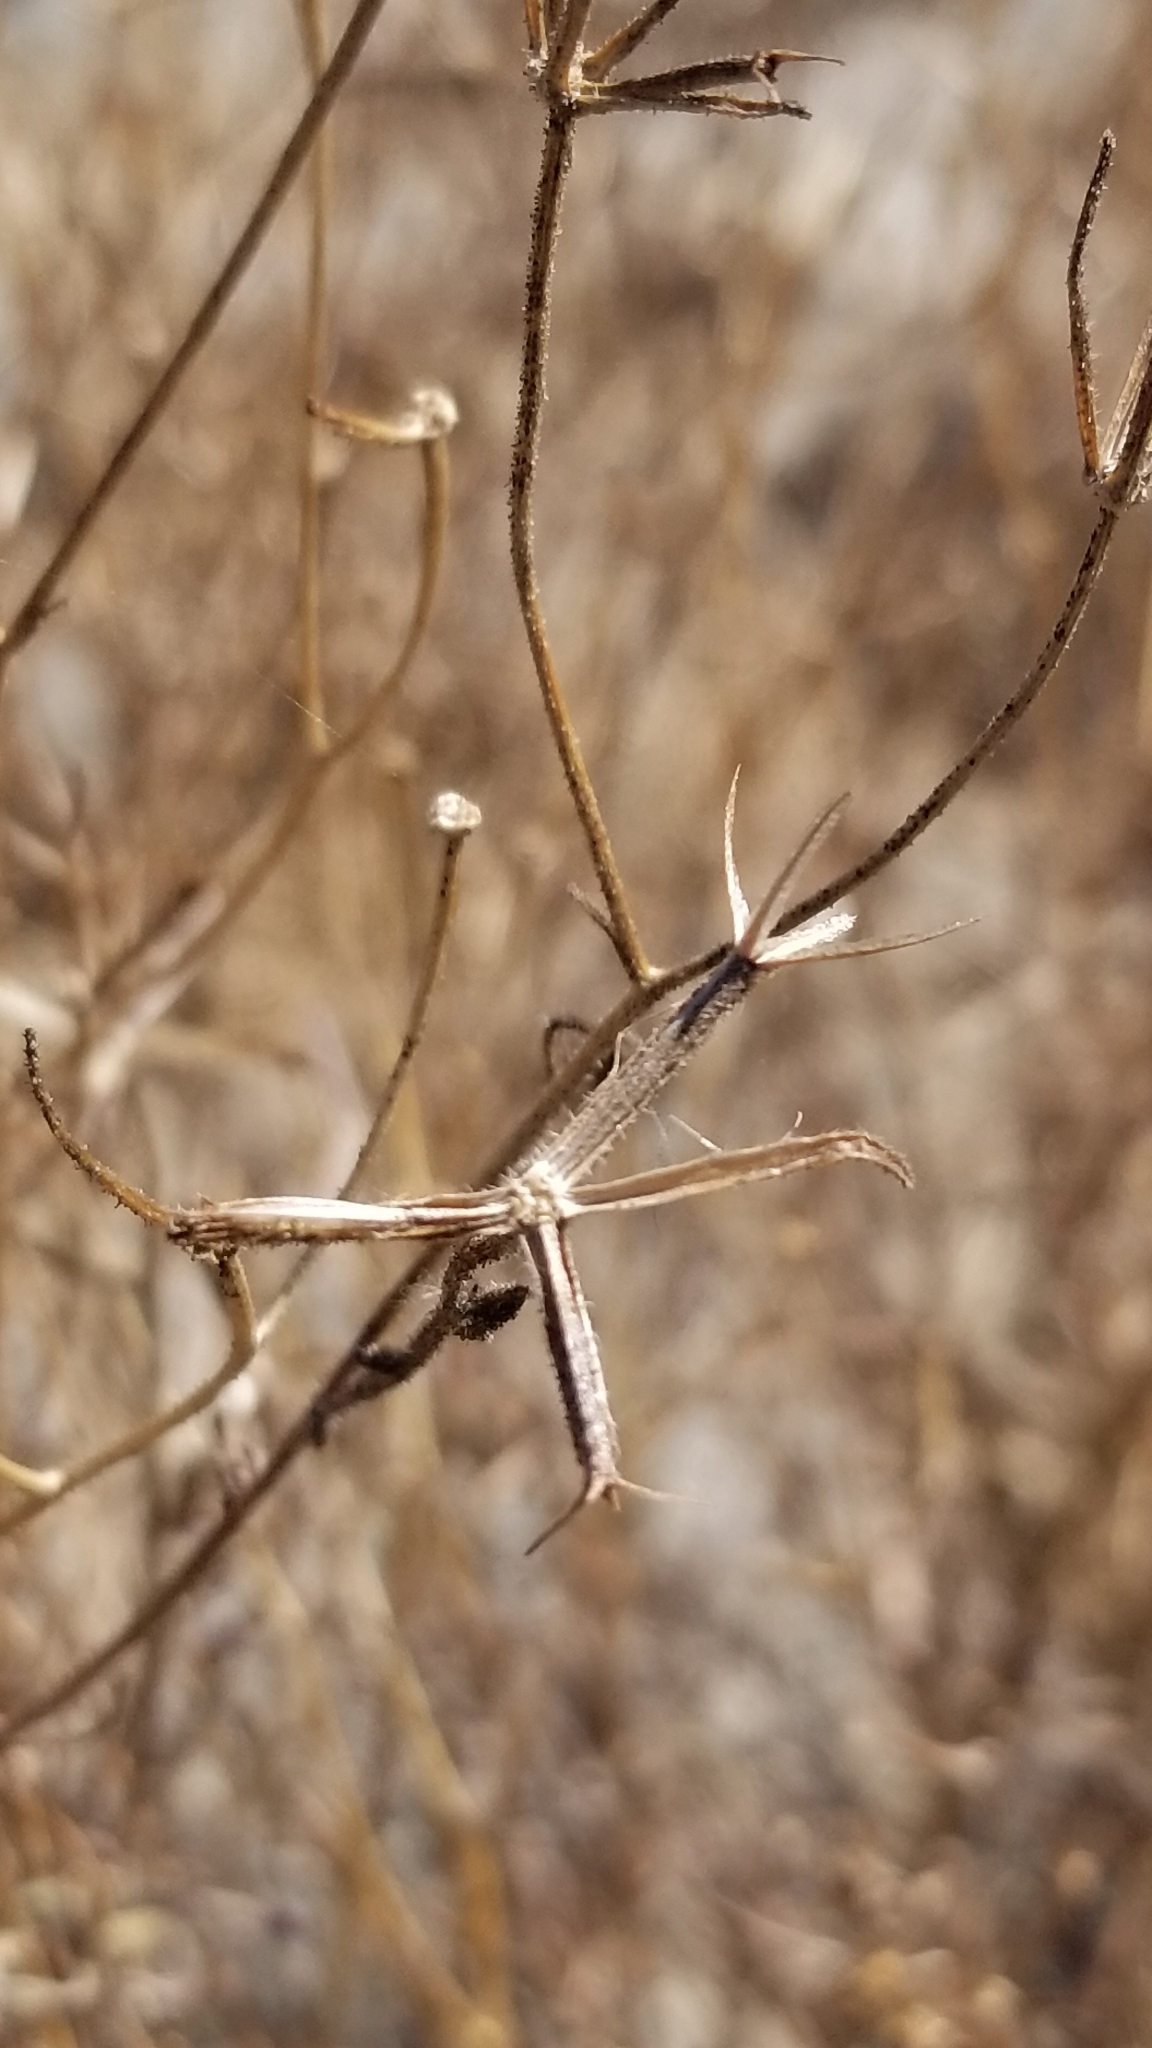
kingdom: Plantae
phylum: Tracheophyta
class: Magnoliopsida
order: Asterales
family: Asteraceae
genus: Palafoxia
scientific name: Palafoxia arida
